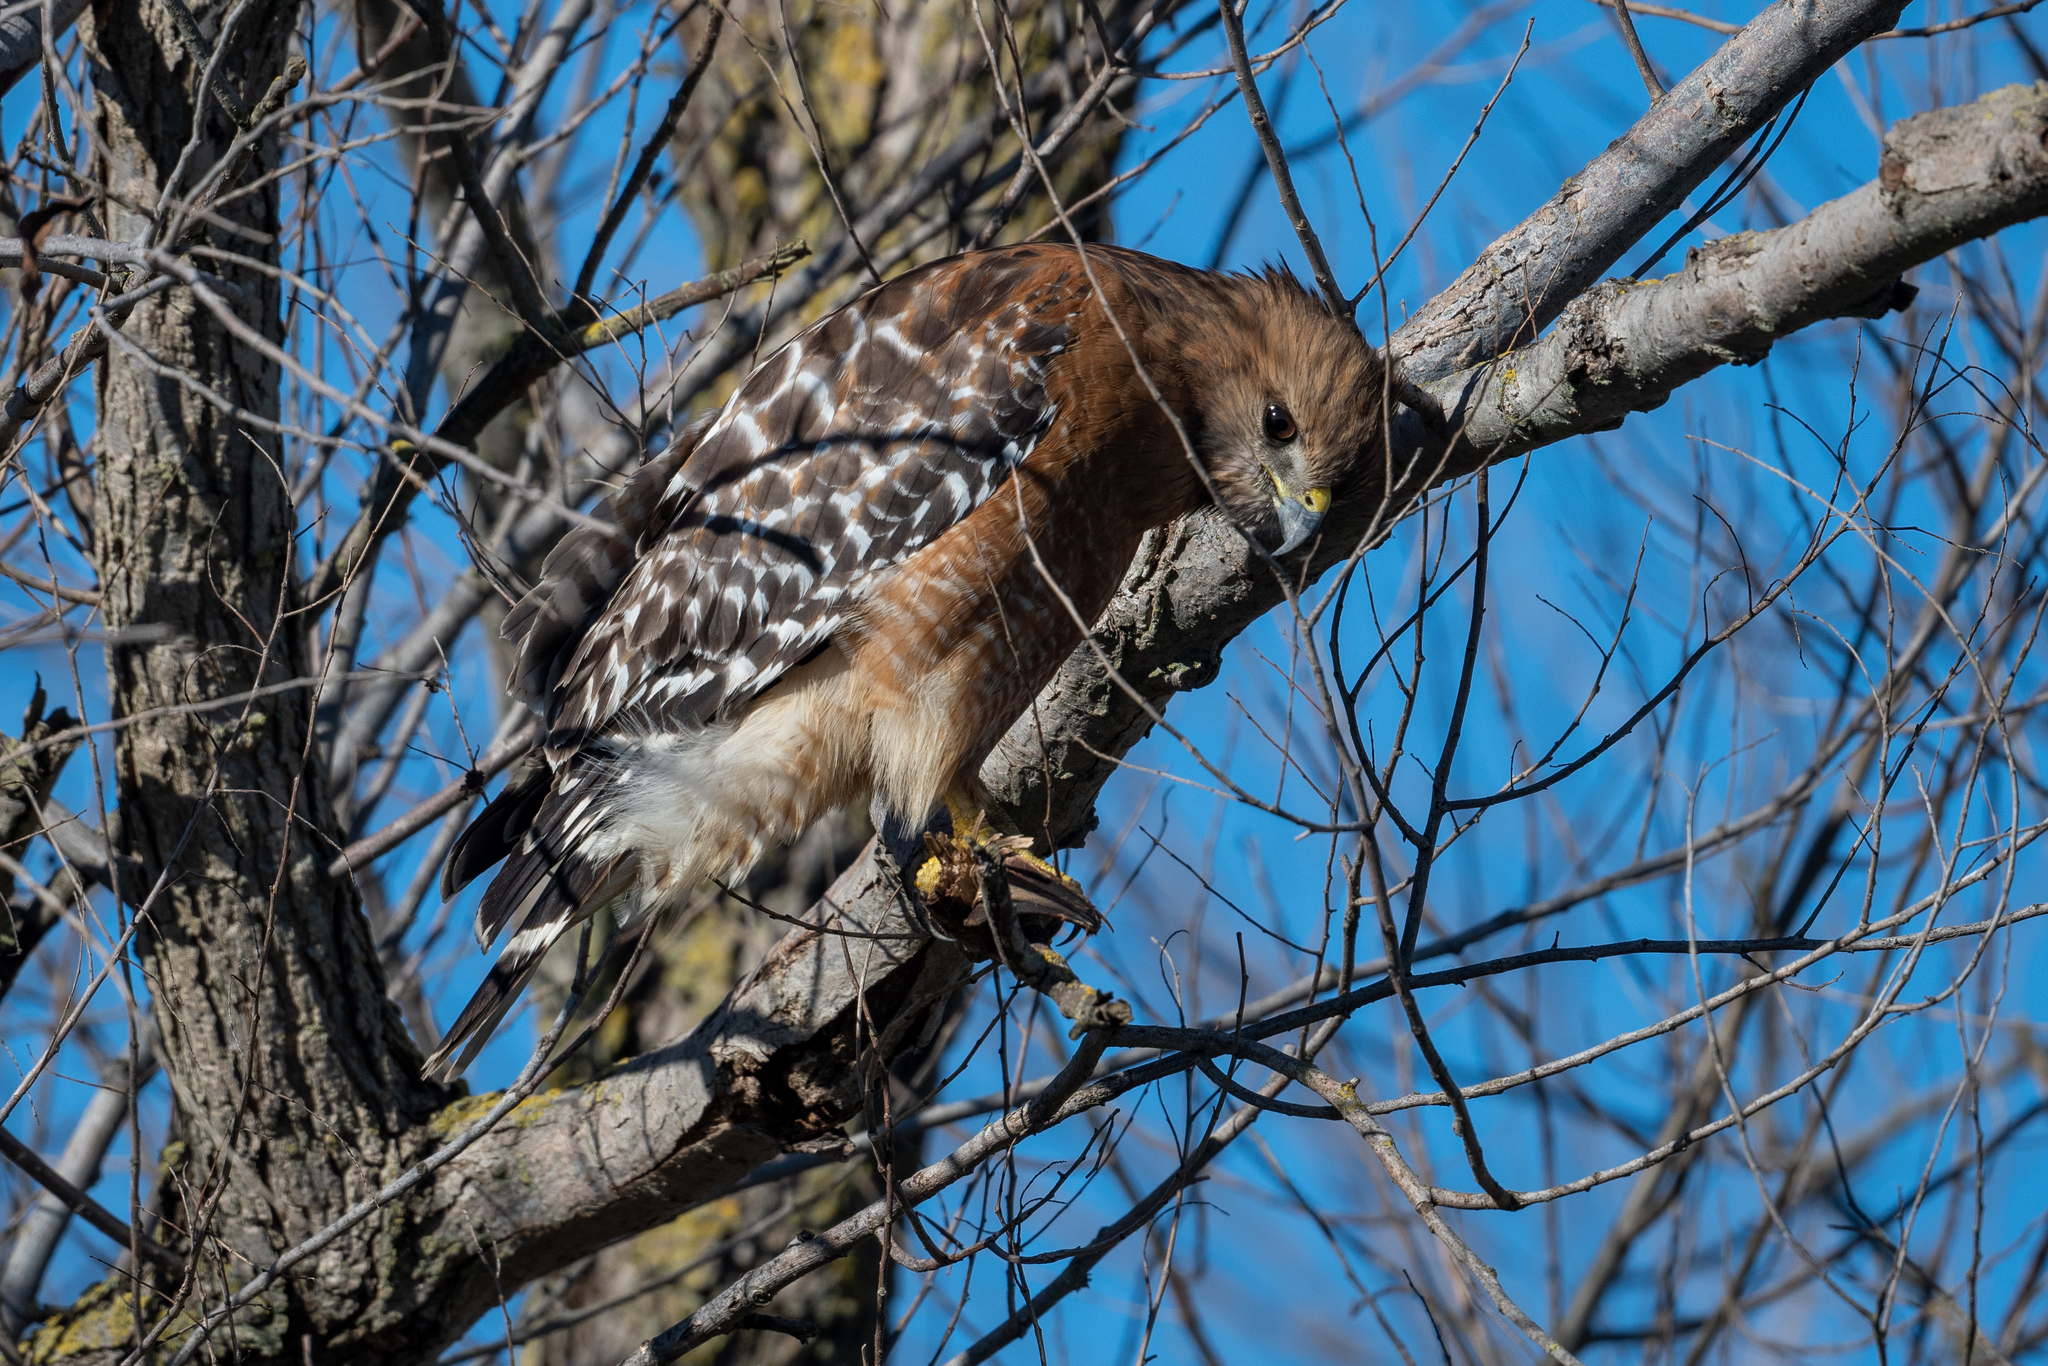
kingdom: Animalia
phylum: Chordata
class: Aves
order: Accipitriformes
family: Accipitridae
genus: Buteo
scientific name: Buteo lineatus
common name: Red-shouldered hawk
